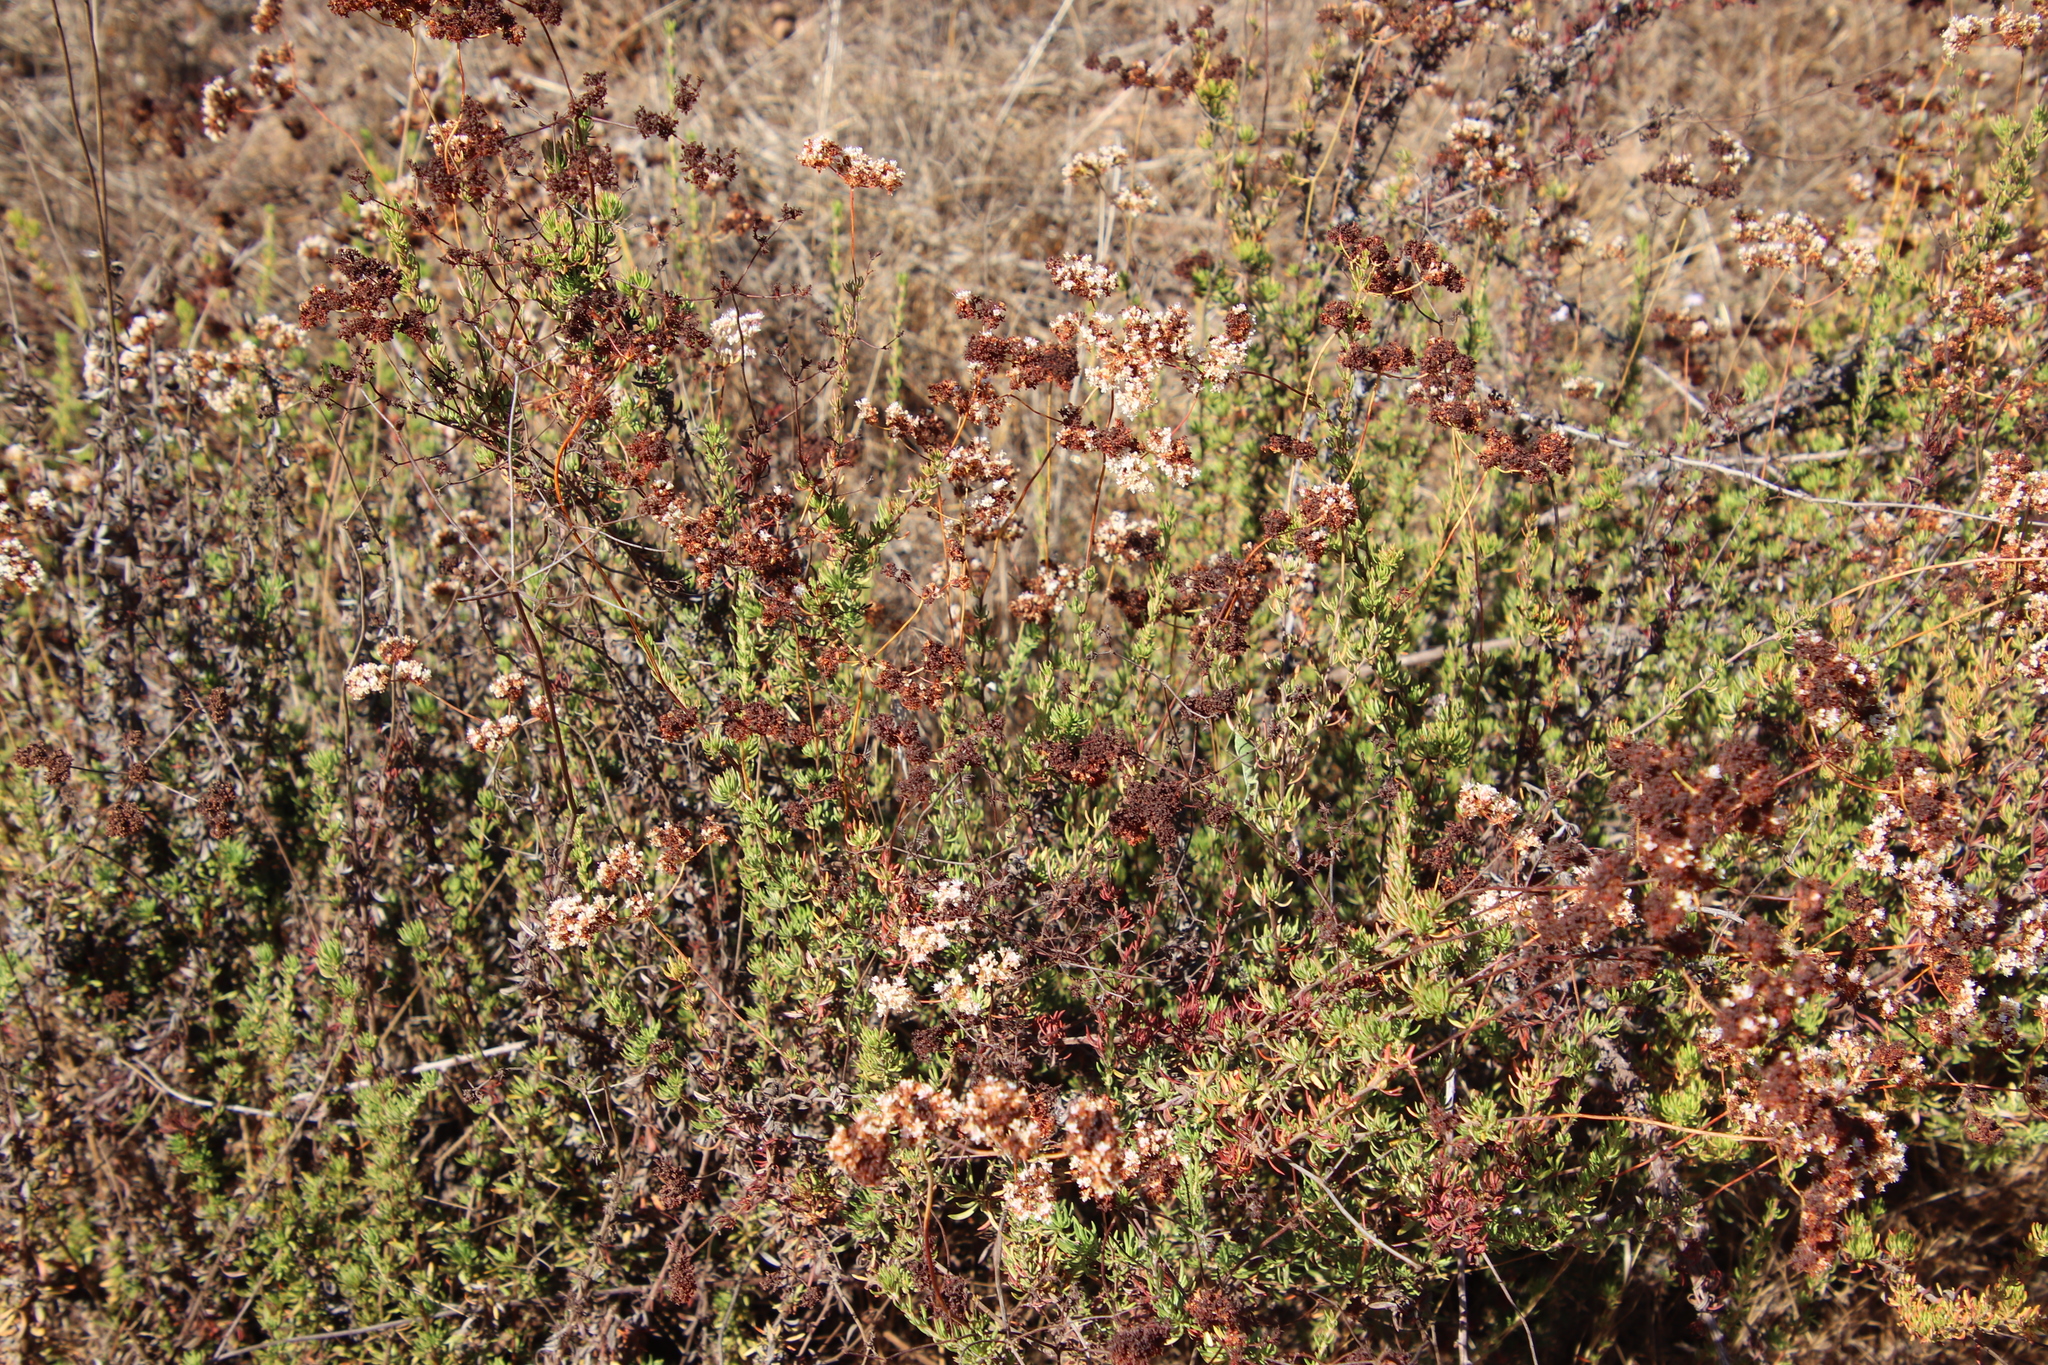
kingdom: Plantae
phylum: Tracheophyta
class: Magnoliopsida
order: Caryophyllales
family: Polygonaceae
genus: Eriogonum
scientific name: Eriogonum fasciculatum
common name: California wild buckwheat
